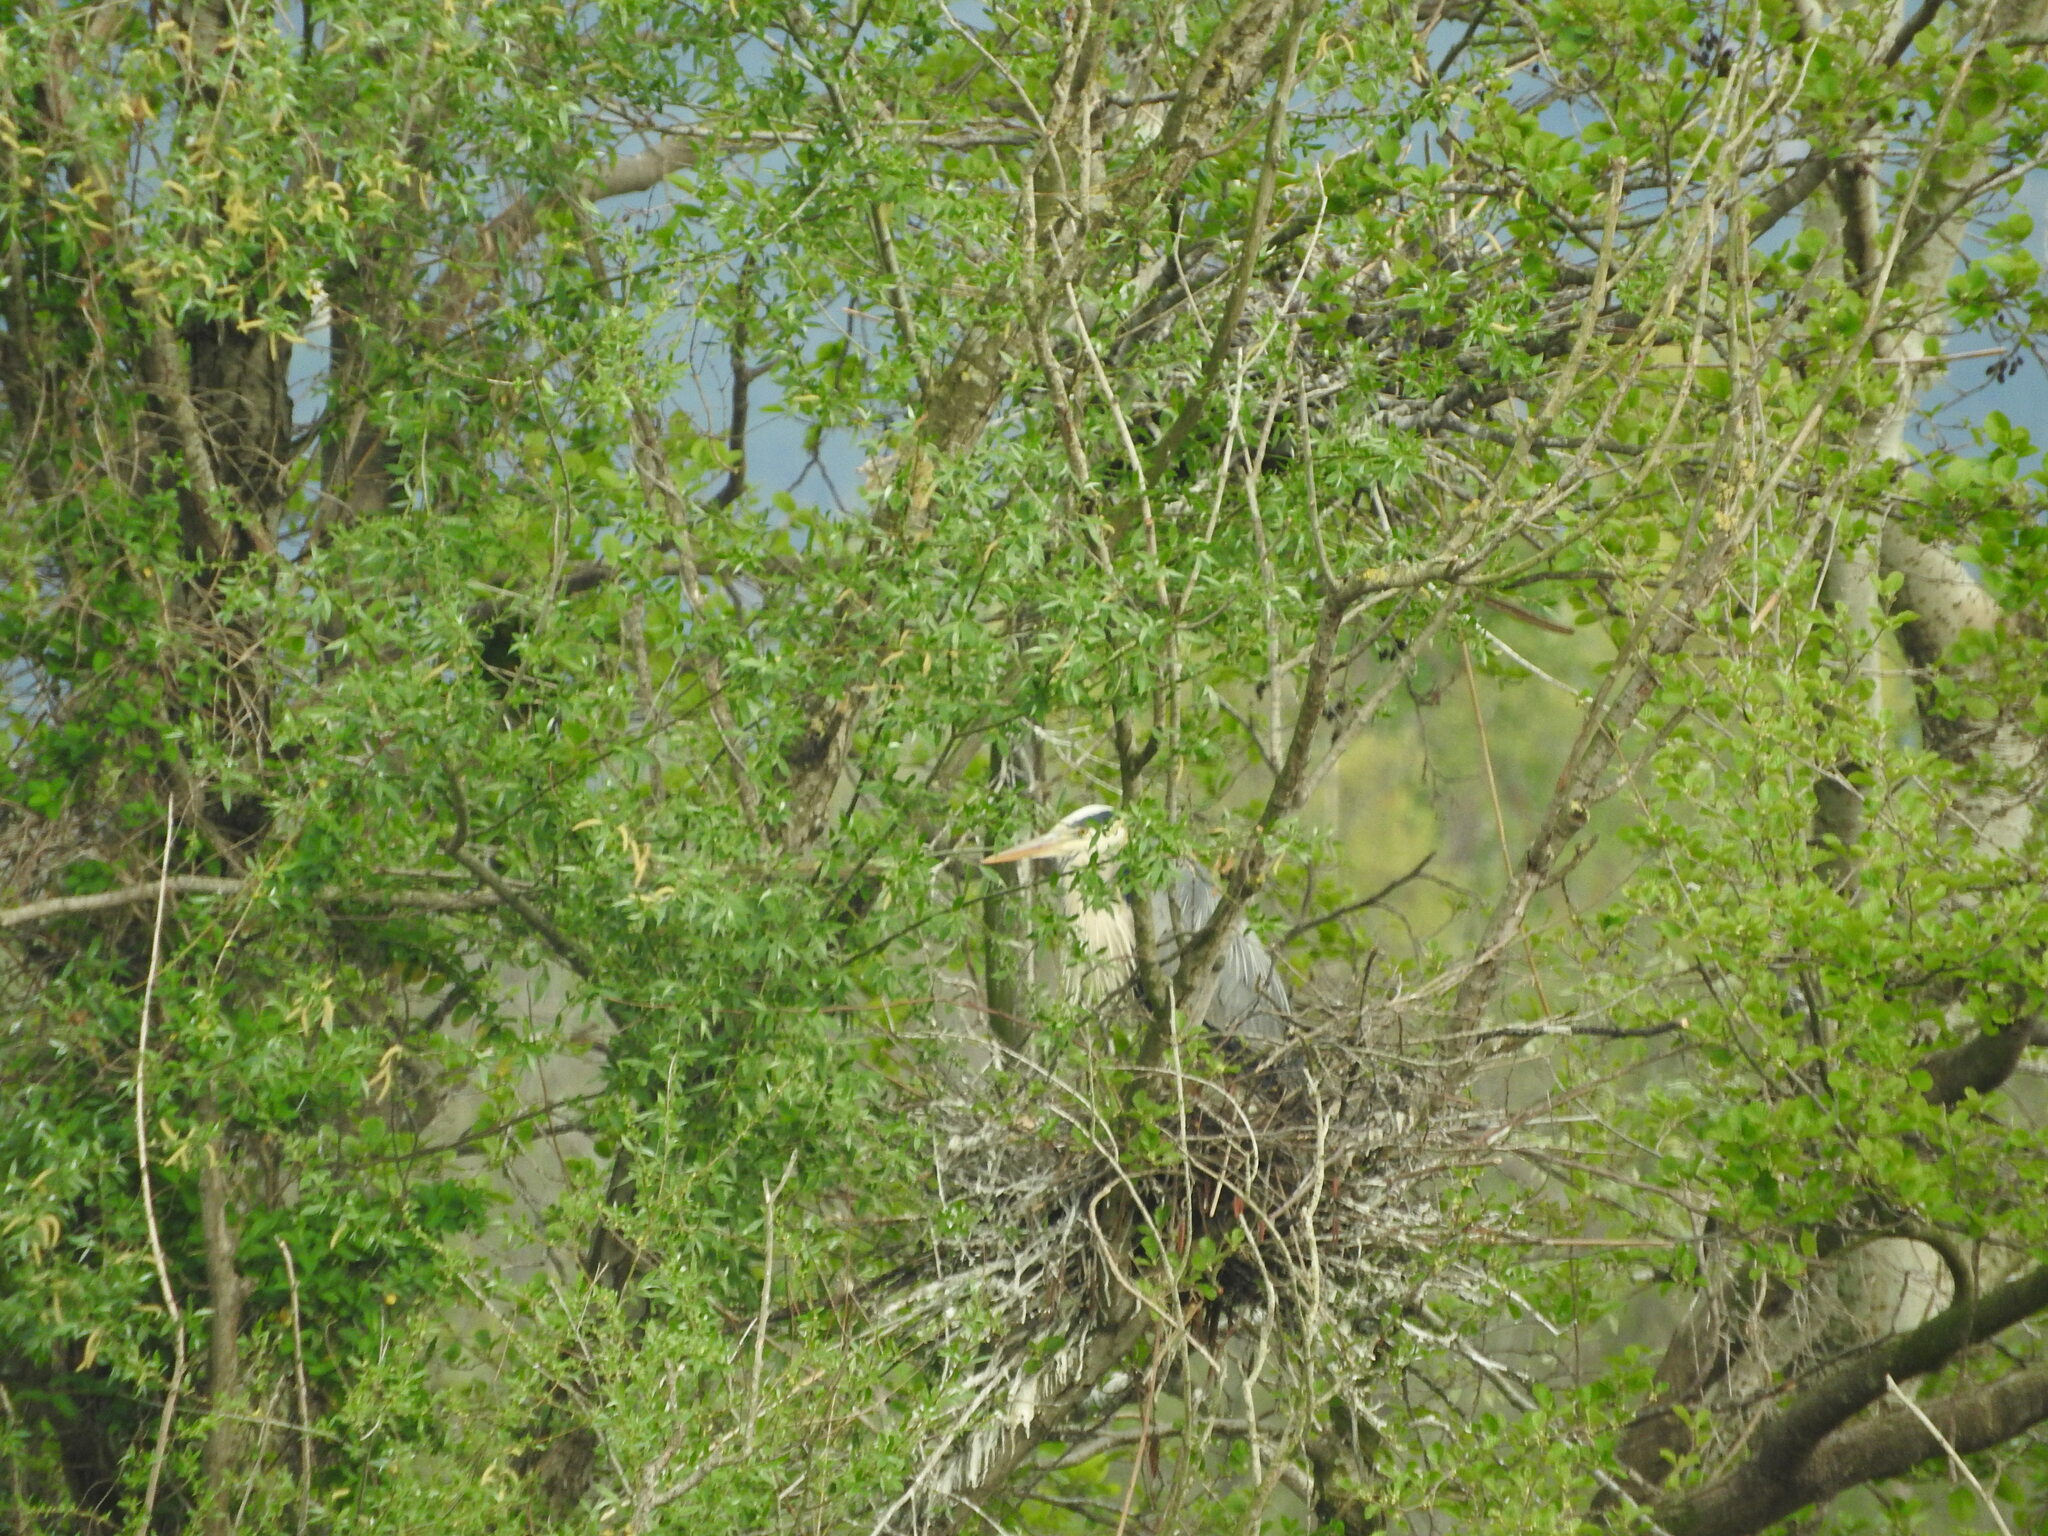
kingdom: Animalia
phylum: Chordata
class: Aves
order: Pelecaniformes
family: Ardeidae
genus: Ardea
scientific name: Ardea cinerea
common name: Grey heron
